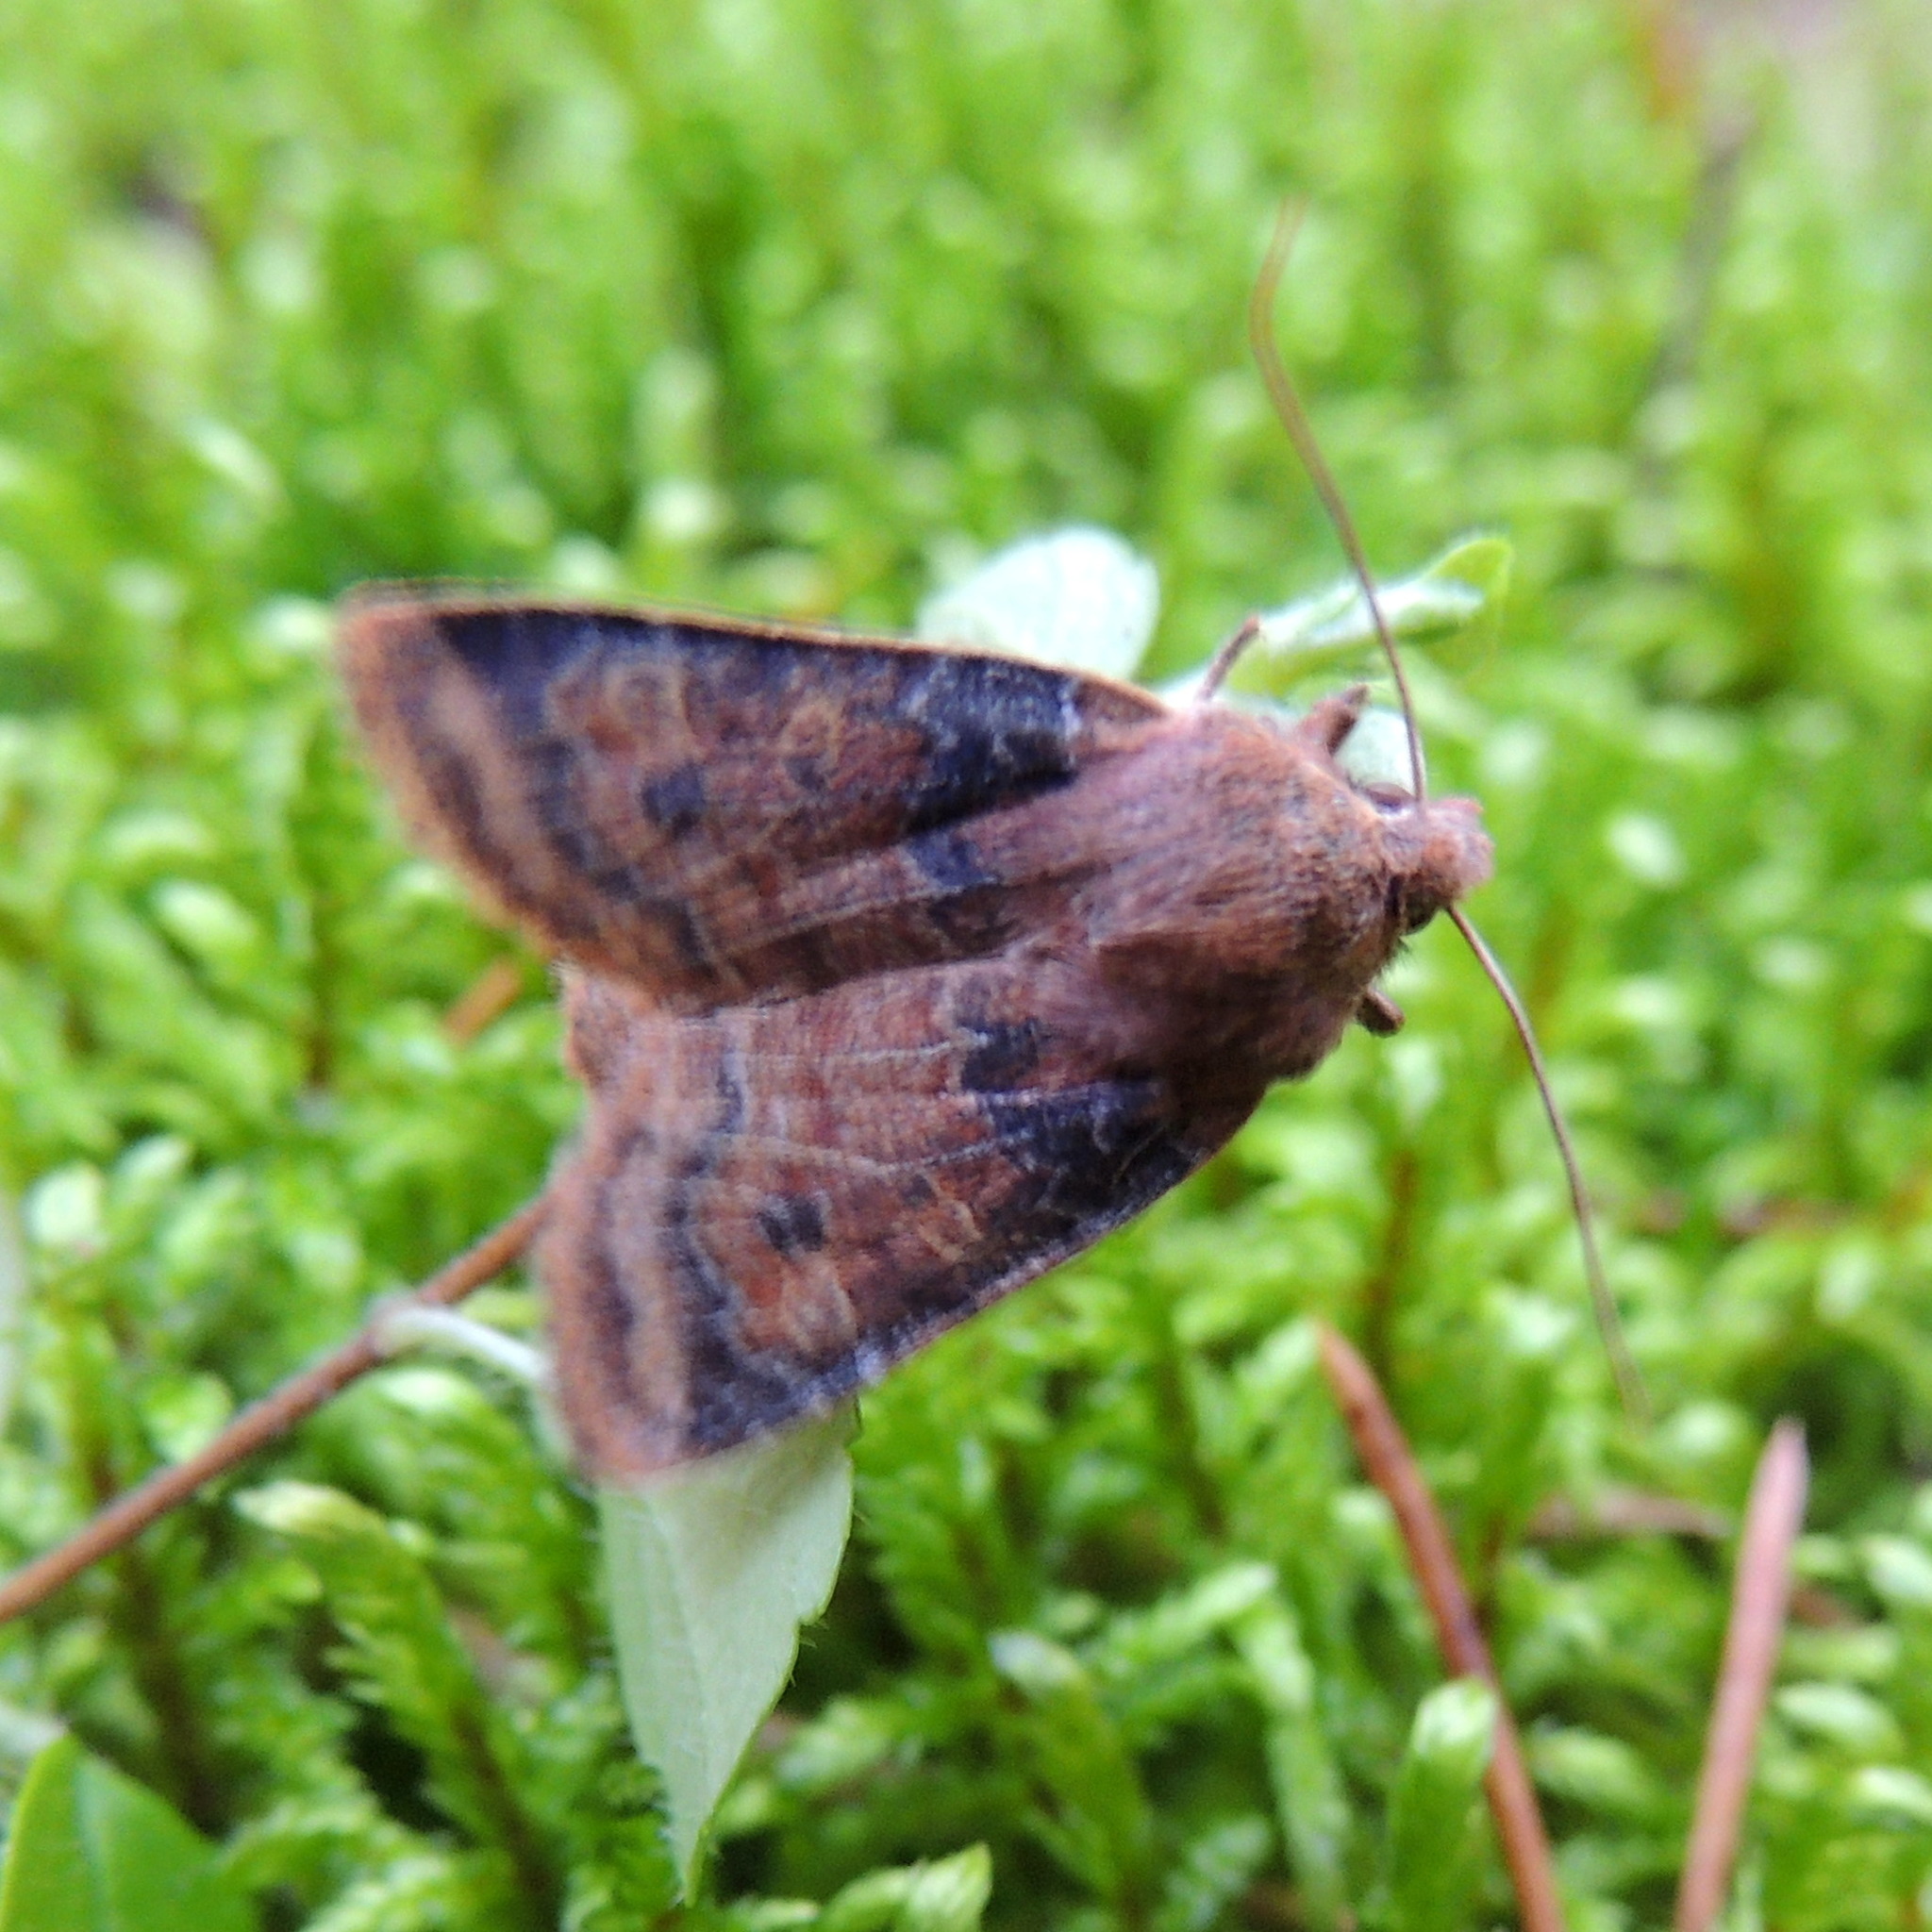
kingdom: Animalia
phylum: Arthropoda
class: Insecta
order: Lepidoptera
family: Noctuidae
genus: Conistra
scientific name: Conistra vaccinii
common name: Chestnut
